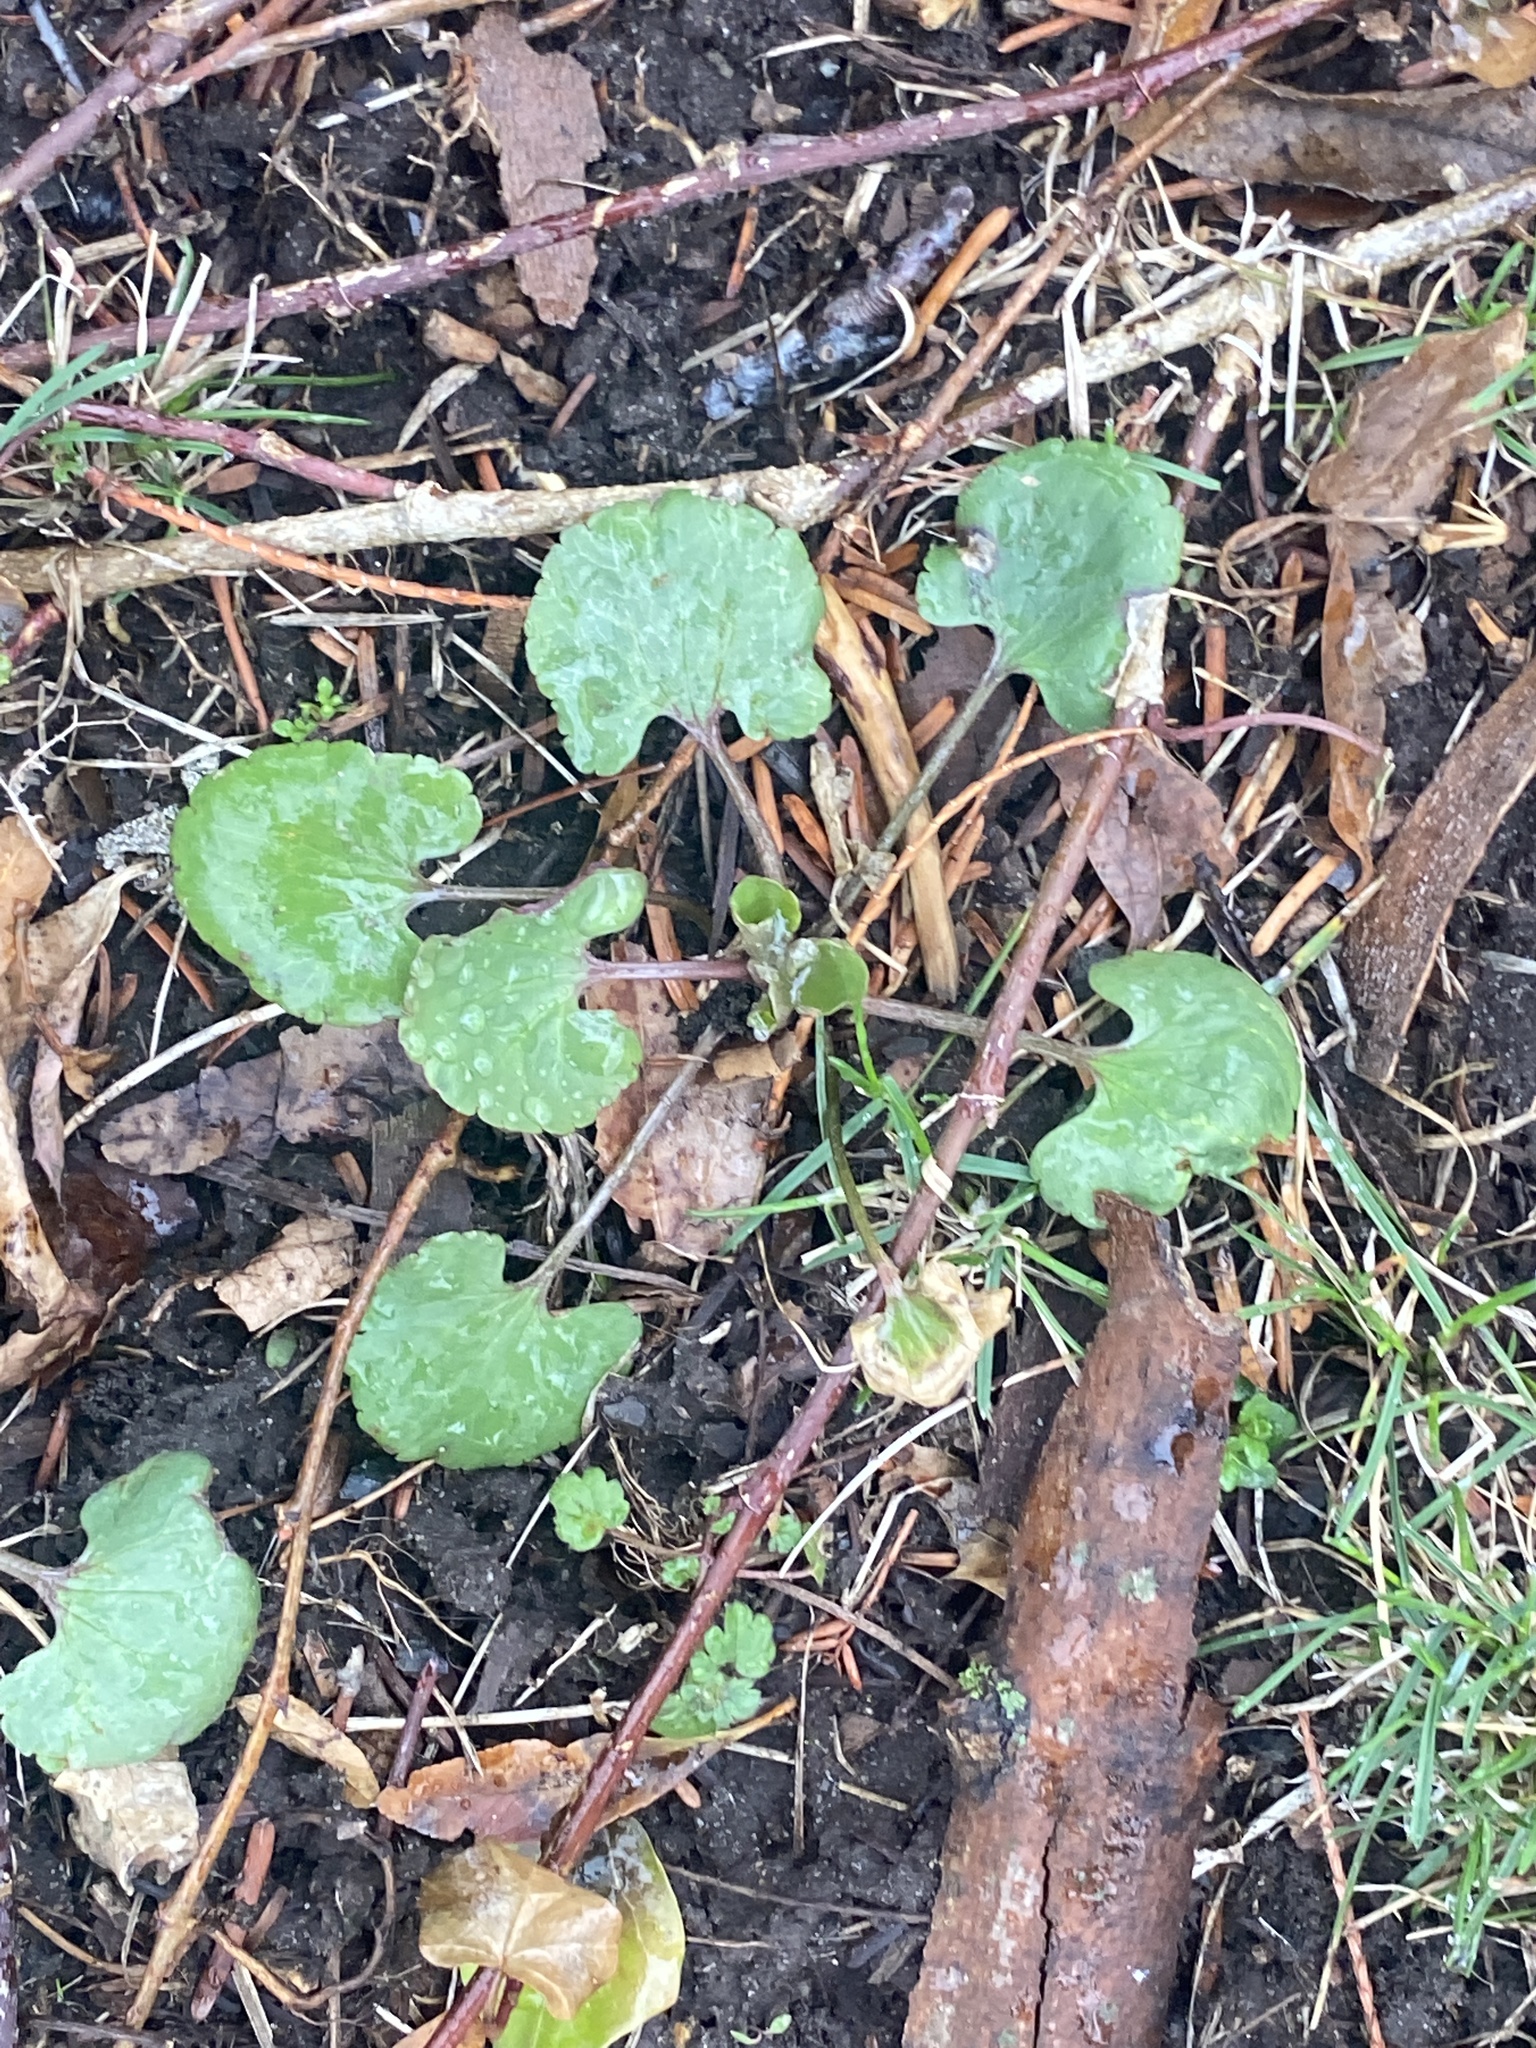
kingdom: Plantae
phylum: Tracheophyta
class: Magnoliopsida
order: Ranunculales
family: Ranunculaceae
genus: Ranunculus
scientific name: Ranunculus abortivus
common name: Early wood buttercup
